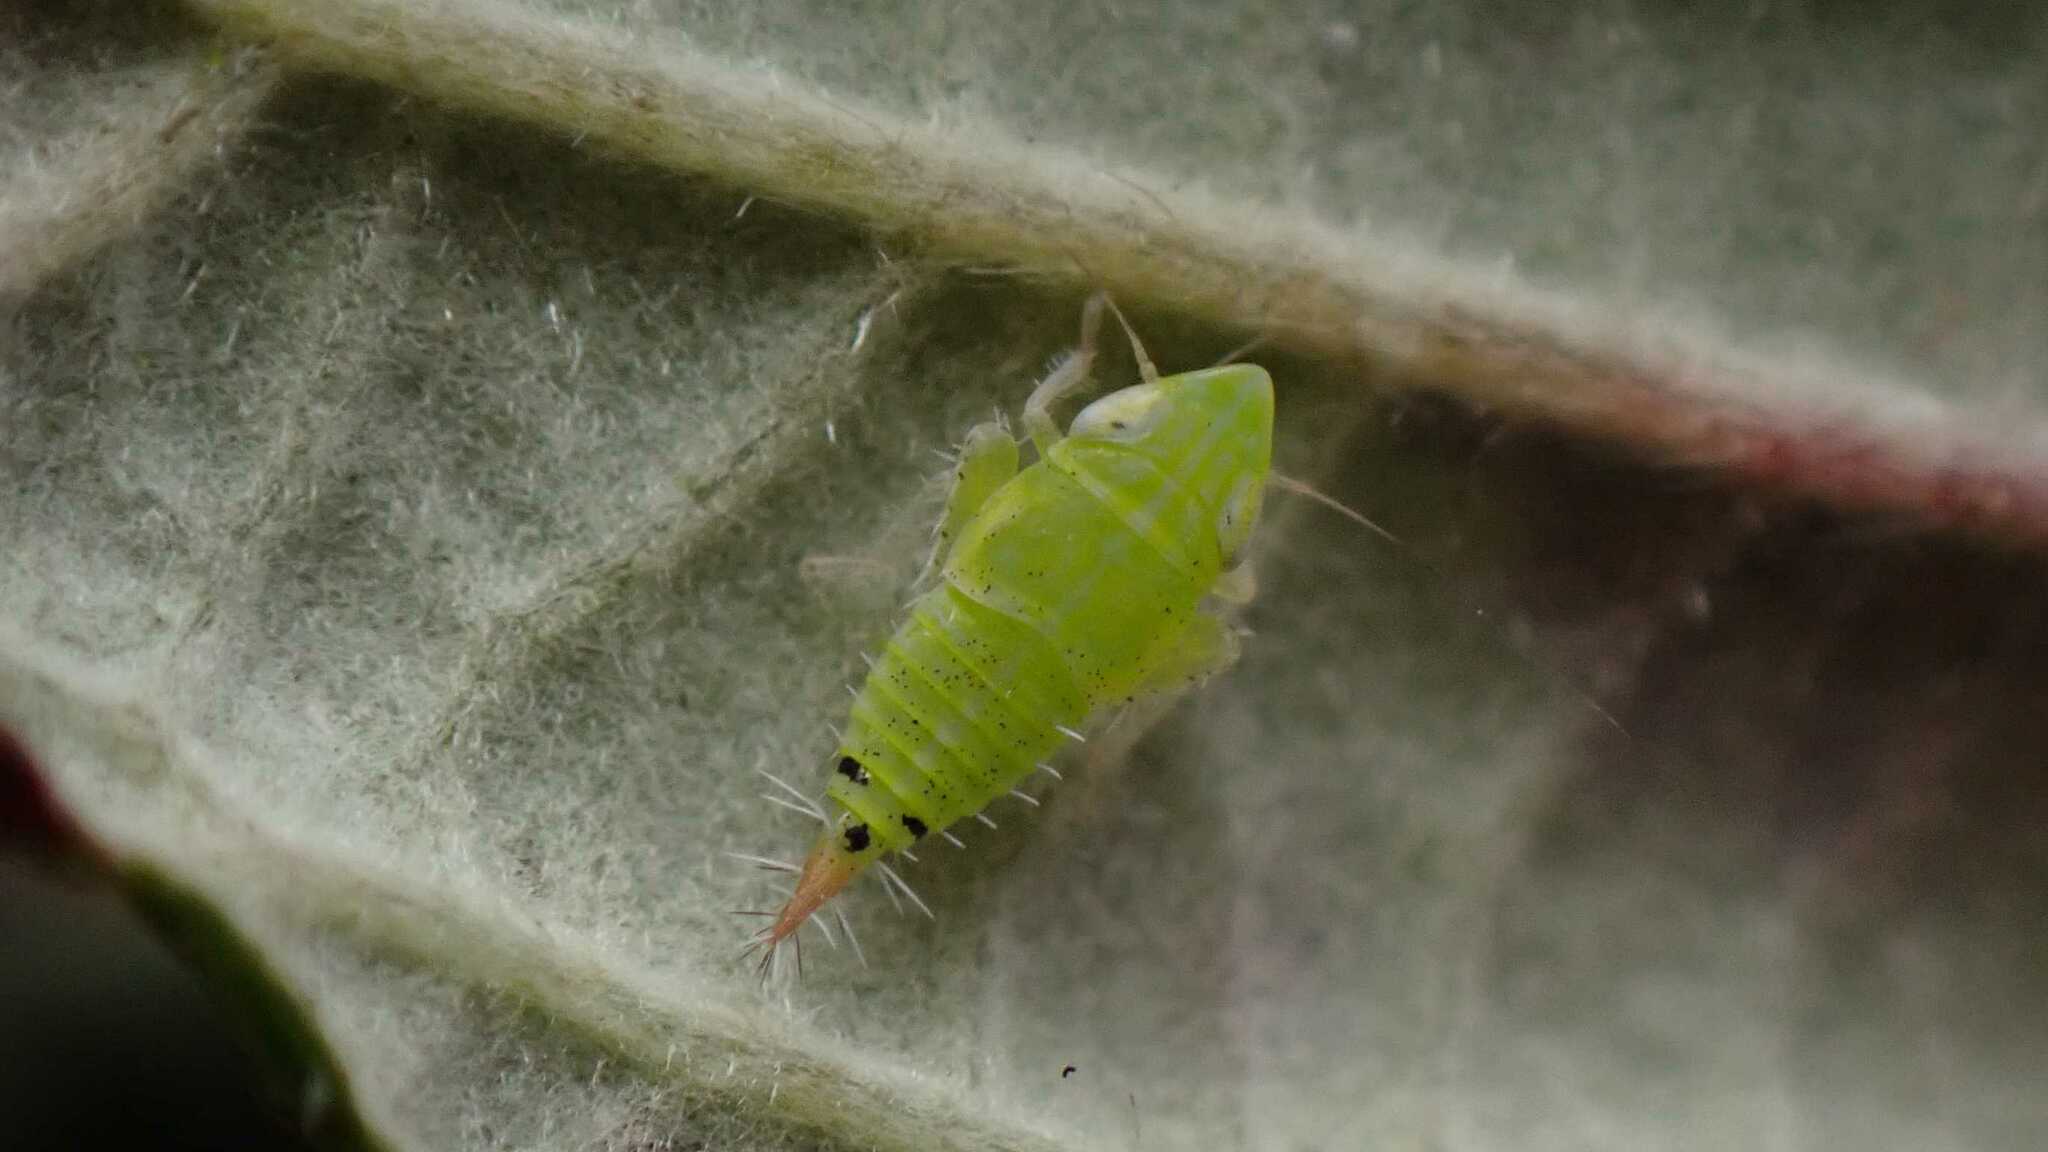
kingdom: Animalia
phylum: Arthropoda
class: Insecta
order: Hemiptera
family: Cicadellidae
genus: Fieberiella
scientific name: Fieberiella
